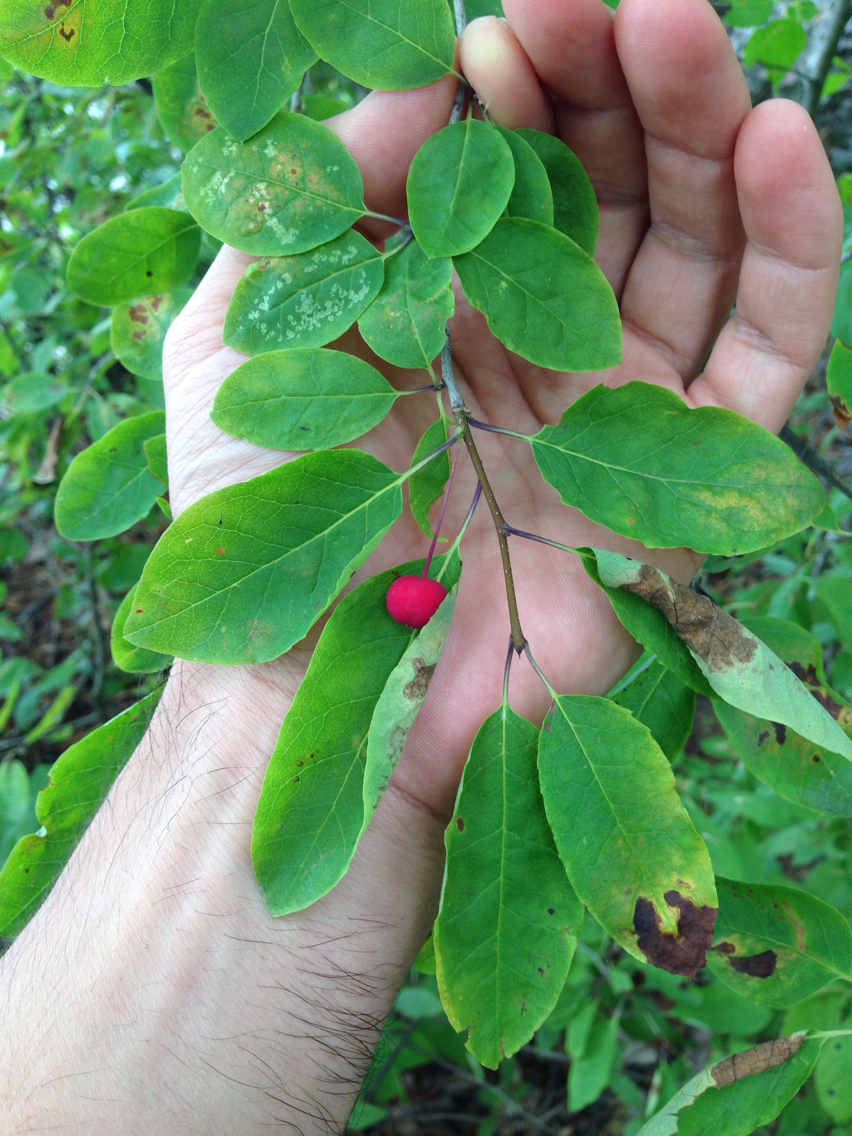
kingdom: Plantae
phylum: Tracheophyta
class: Magnoliopsida
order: Aquifoliales
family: Aquifoliaceae
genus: Ilex
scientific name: Ilex mucronata
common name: Catberry
